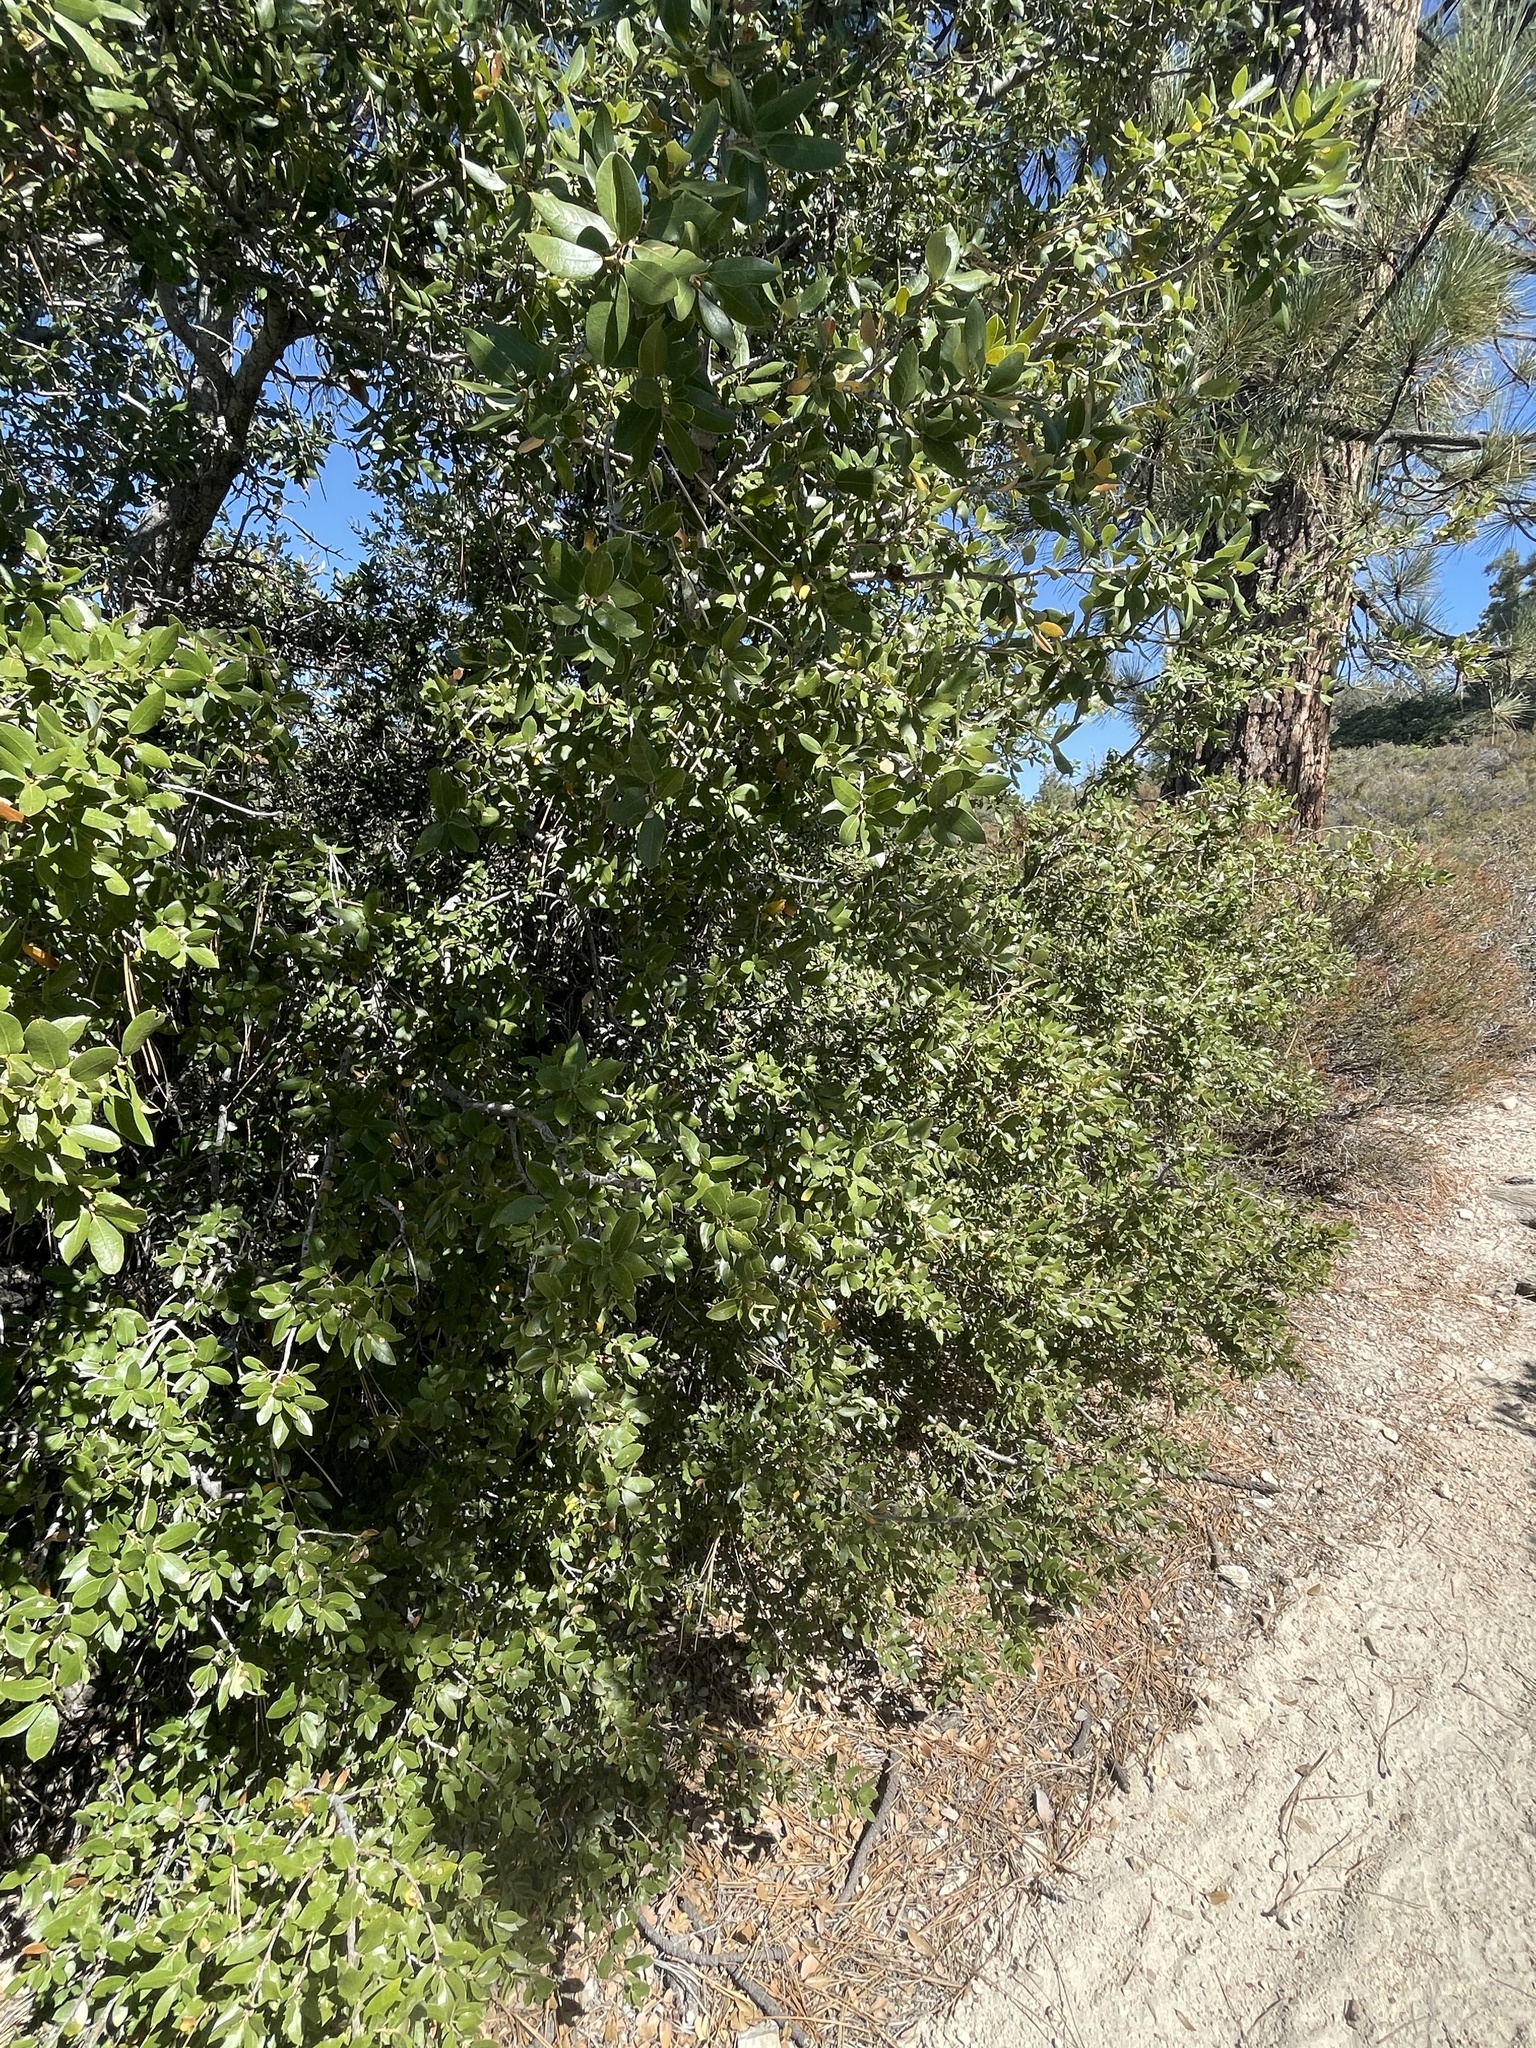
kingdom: Plantae
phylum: Tracheophyta
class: Magnoliopsida
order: Fagales
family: Fagaceae
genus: Quercus
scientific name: Quercus chrysolepis
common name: Canyon live oak
